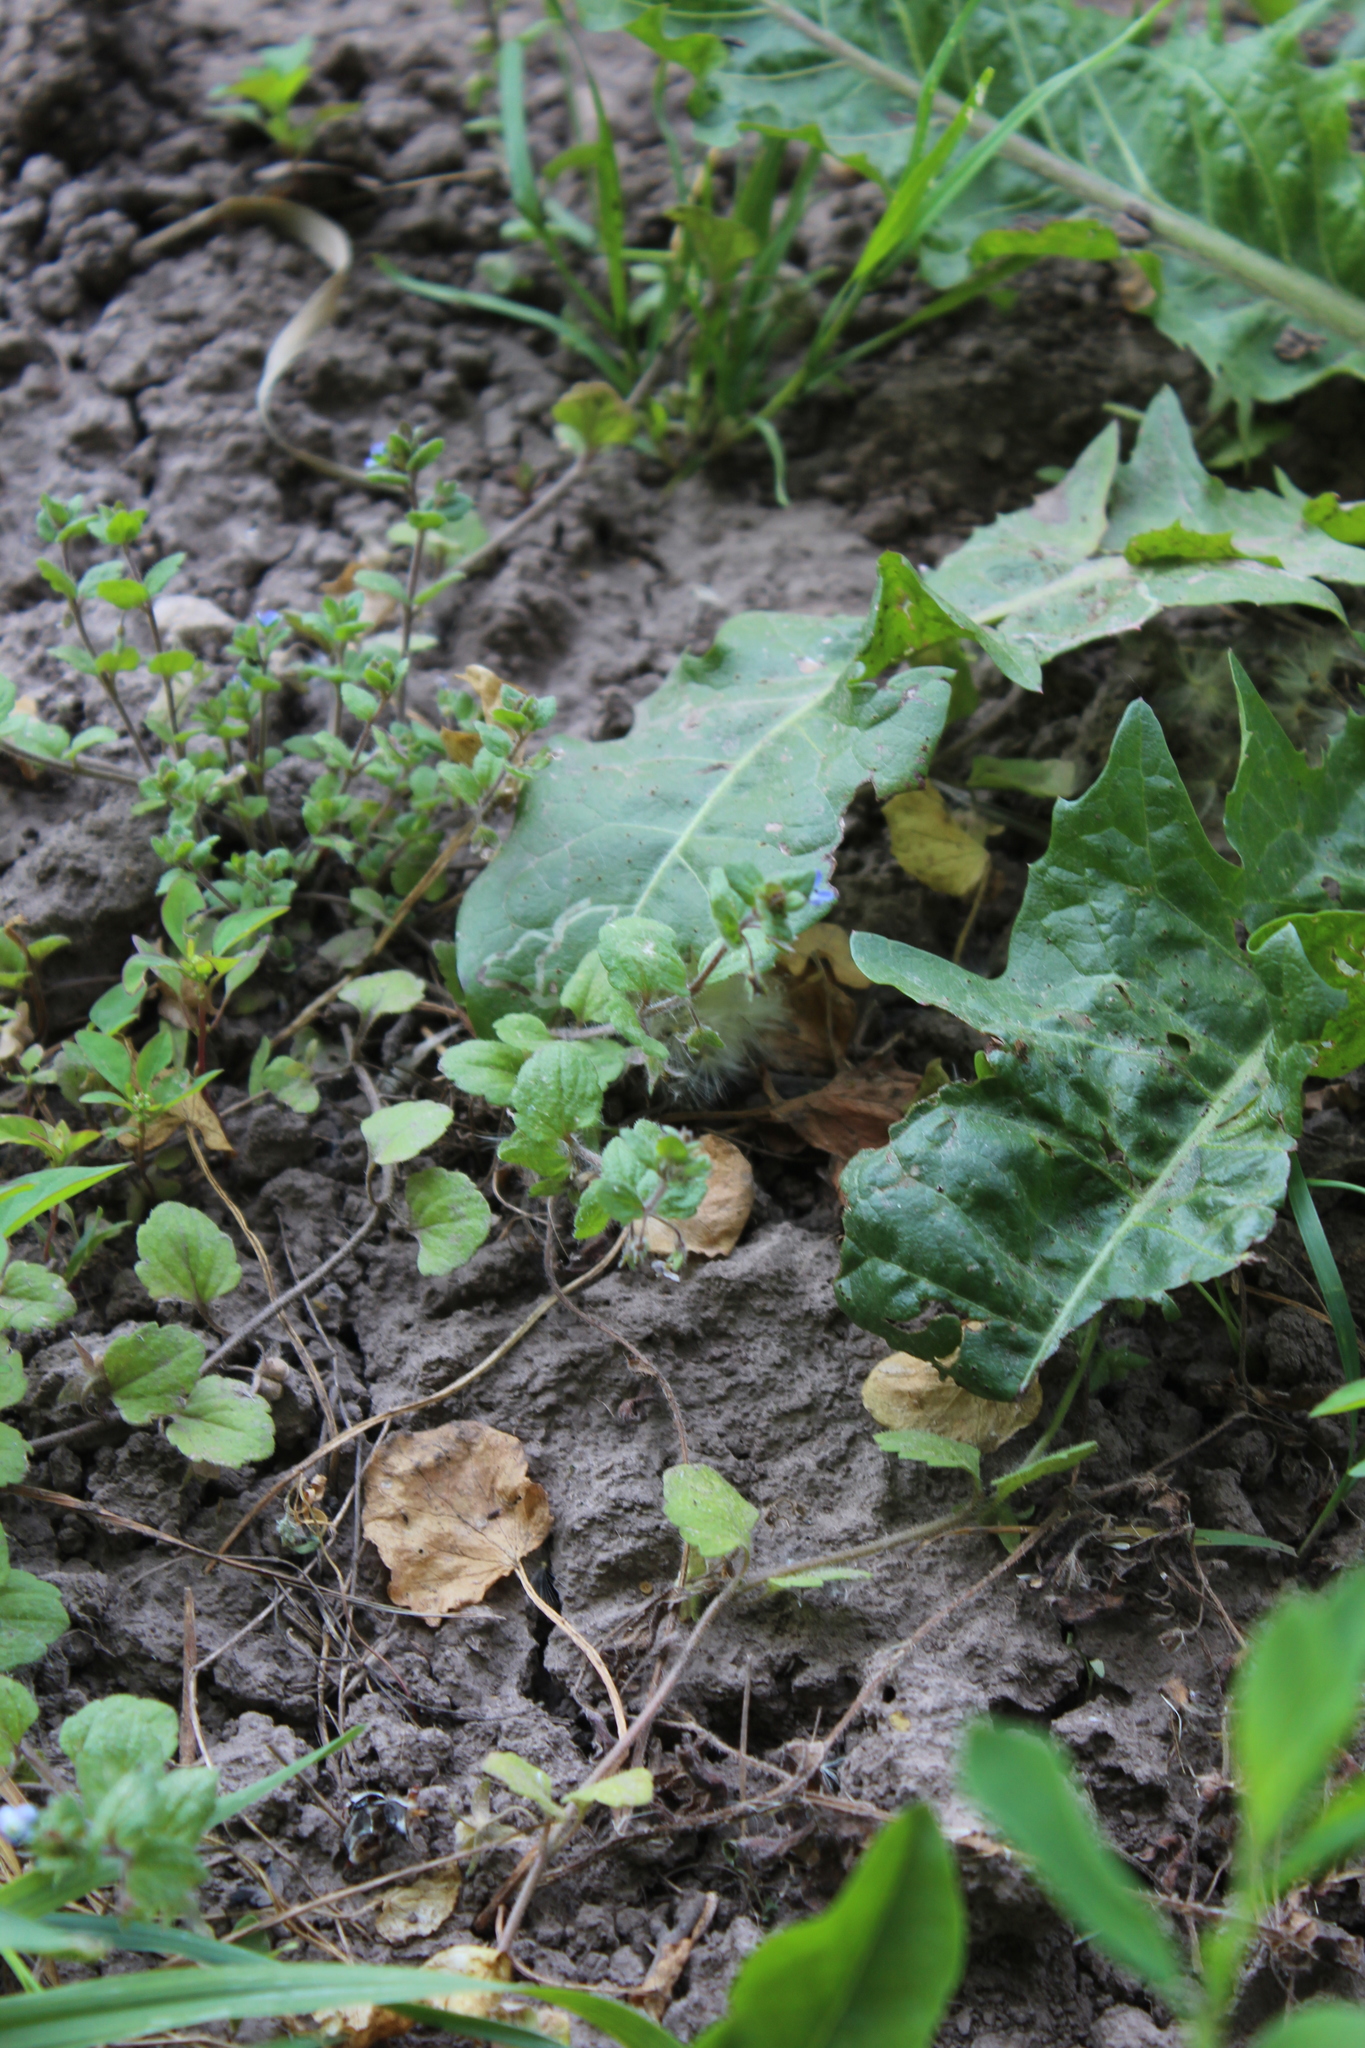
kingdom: Plantae
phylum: Tracheophyta
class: Magnoliopsida
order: Lamiales
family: Plantaginaceae
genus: Veronica
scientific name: Veronica opaca
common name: Dark speedwell
